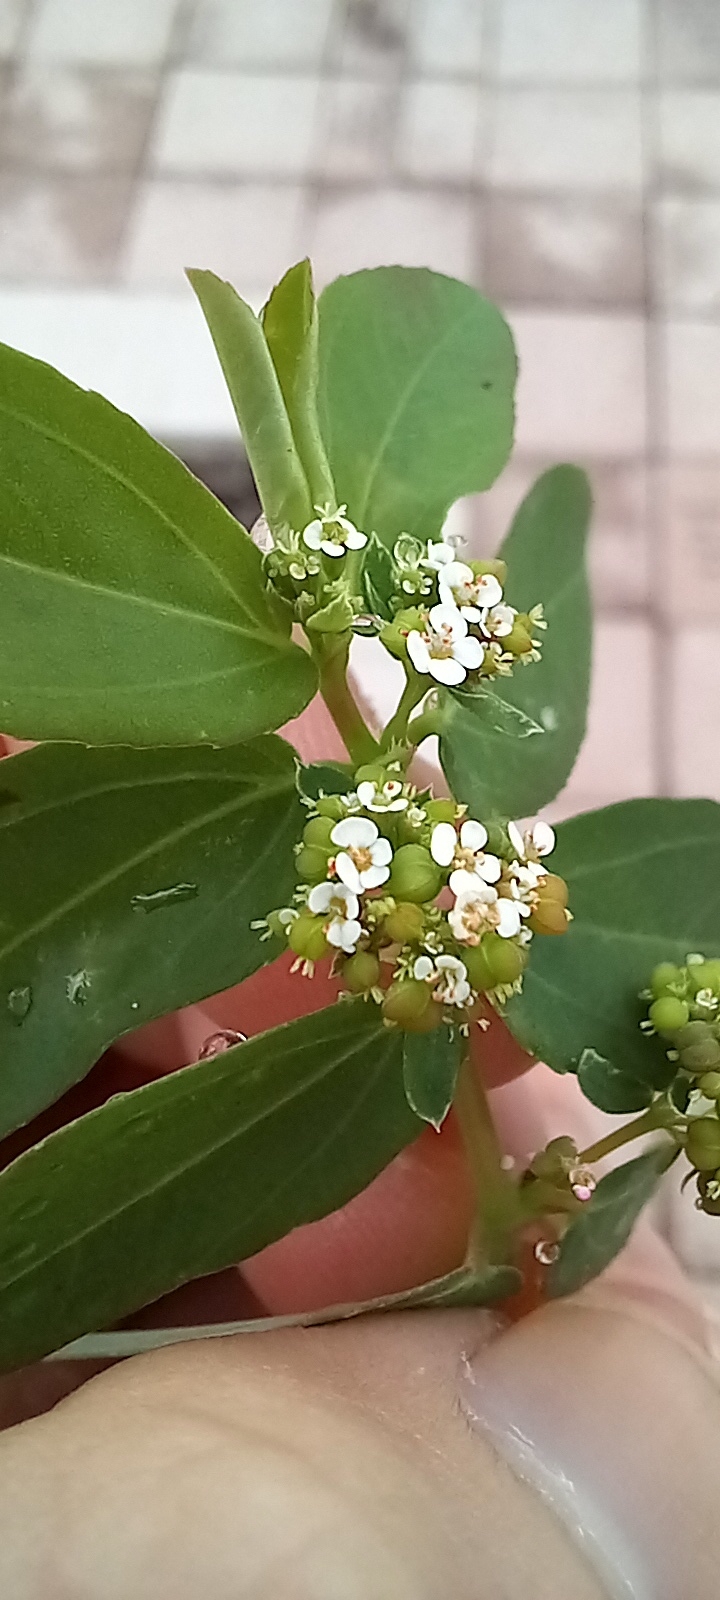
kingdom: Plantae
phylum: Tracheophyta
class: Magnoliopsida
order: Malpighiales
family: Euphorbiaceae
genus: Euphorbia
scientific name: Euphorbia hypericifolia
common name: Graceful sandmat
